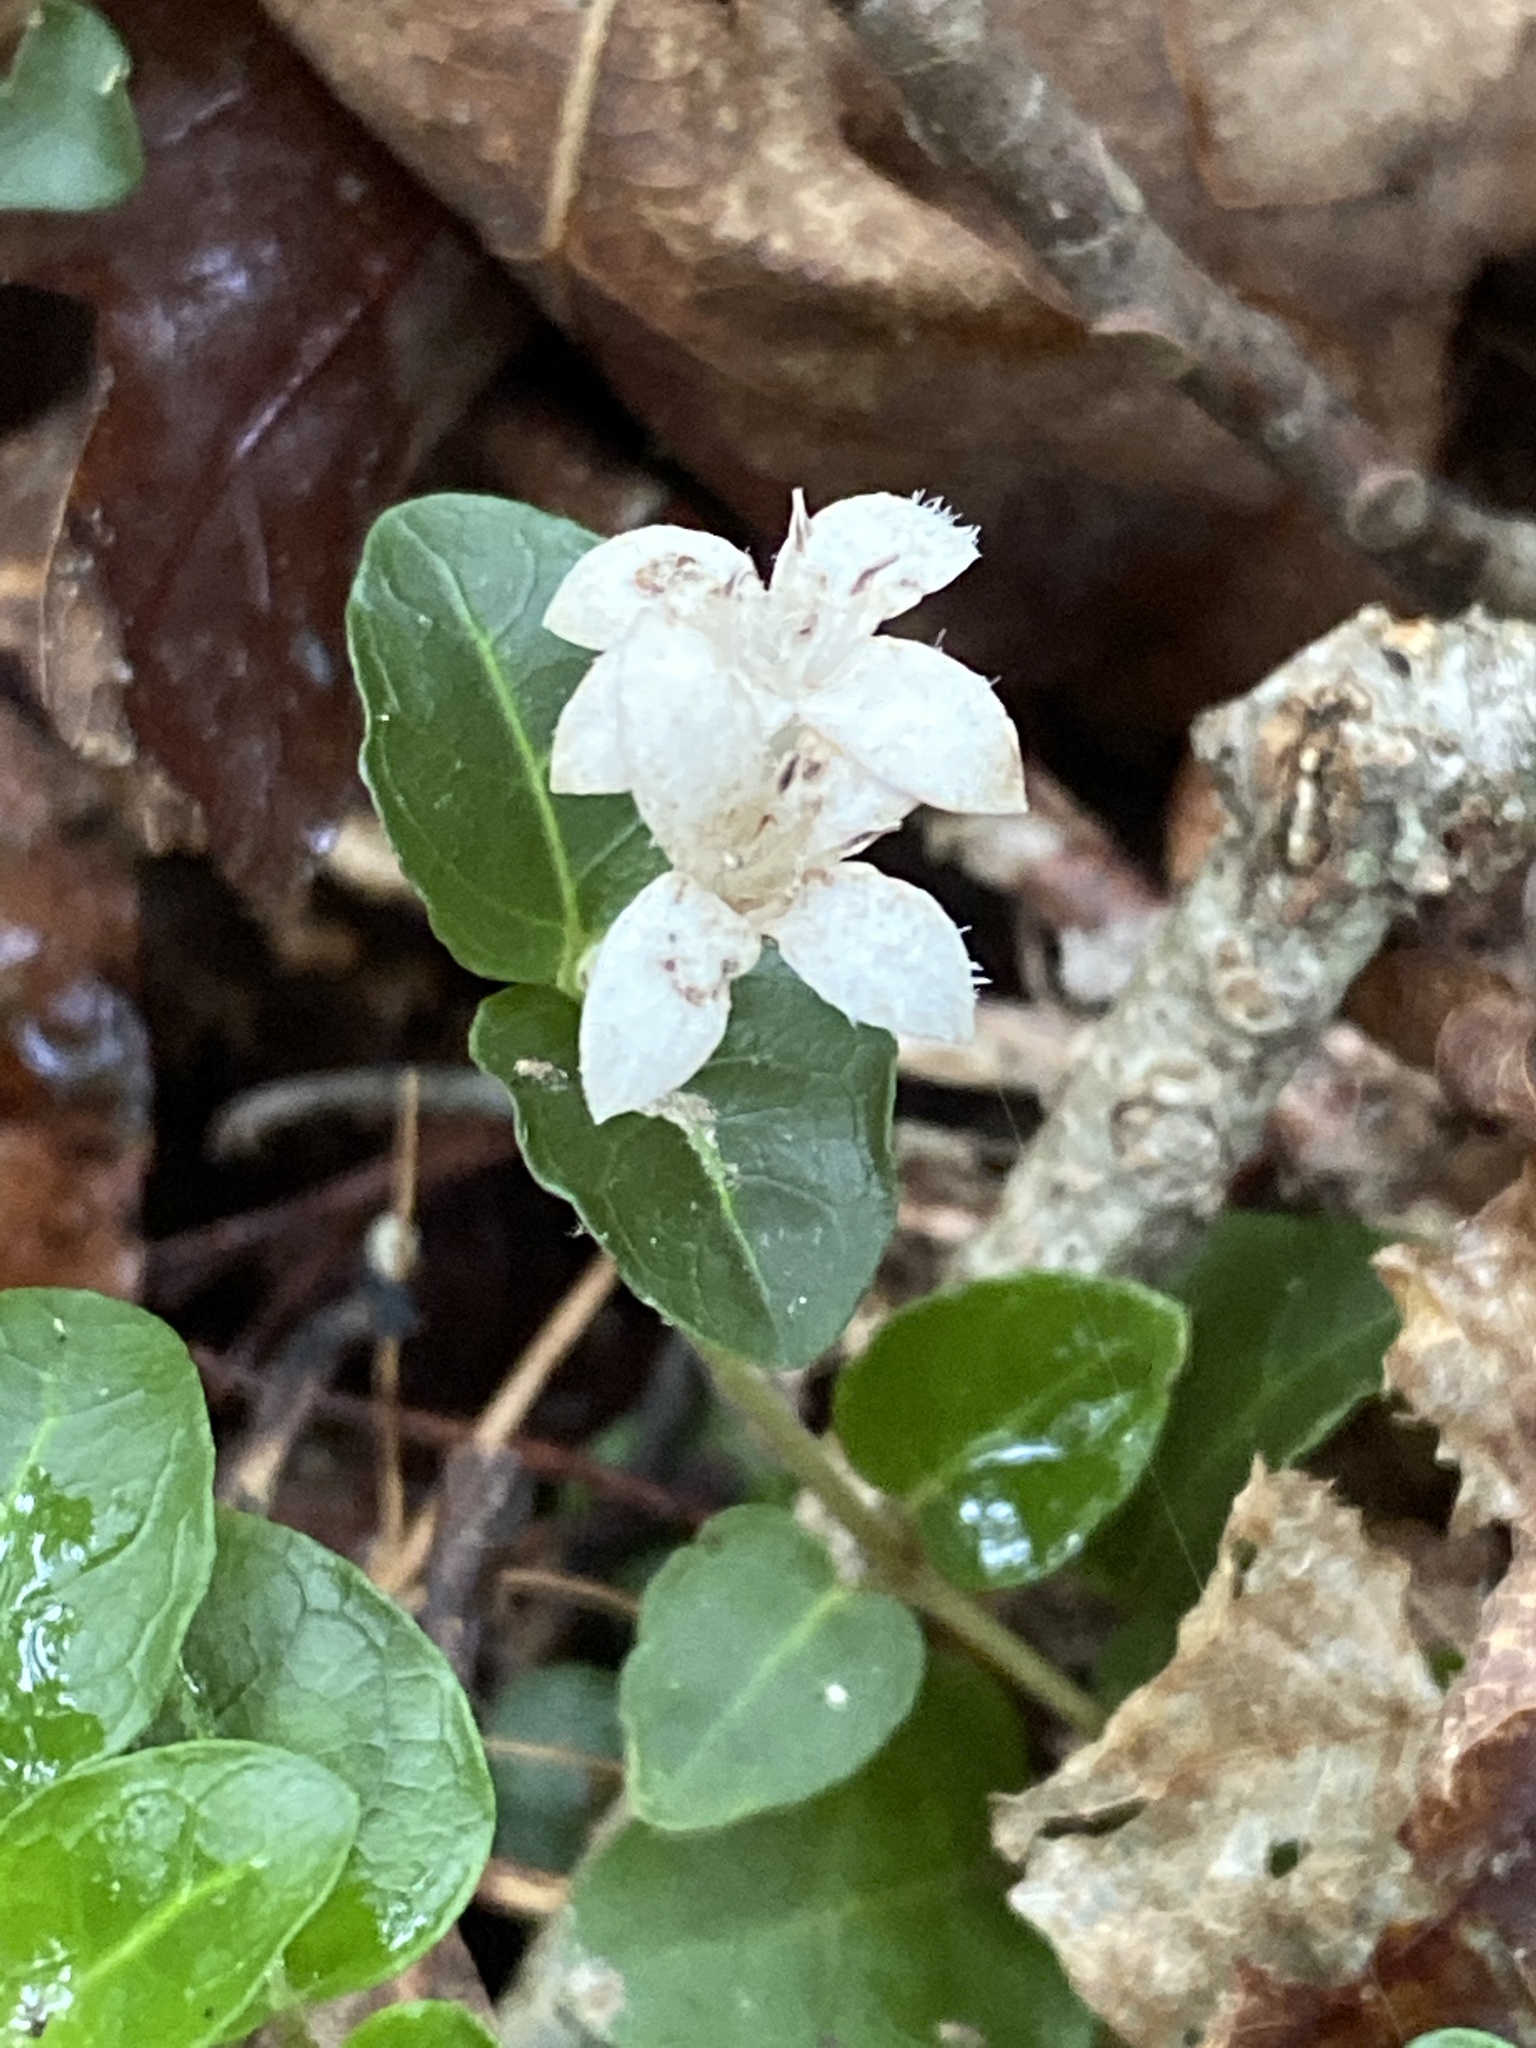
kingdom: Plantae
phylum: Tracheophyta
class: Magnoliopsida
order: Gentianales
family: Rubiaceae
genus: Mitchella
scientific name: Mitchella repens
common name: Partridge-berry
